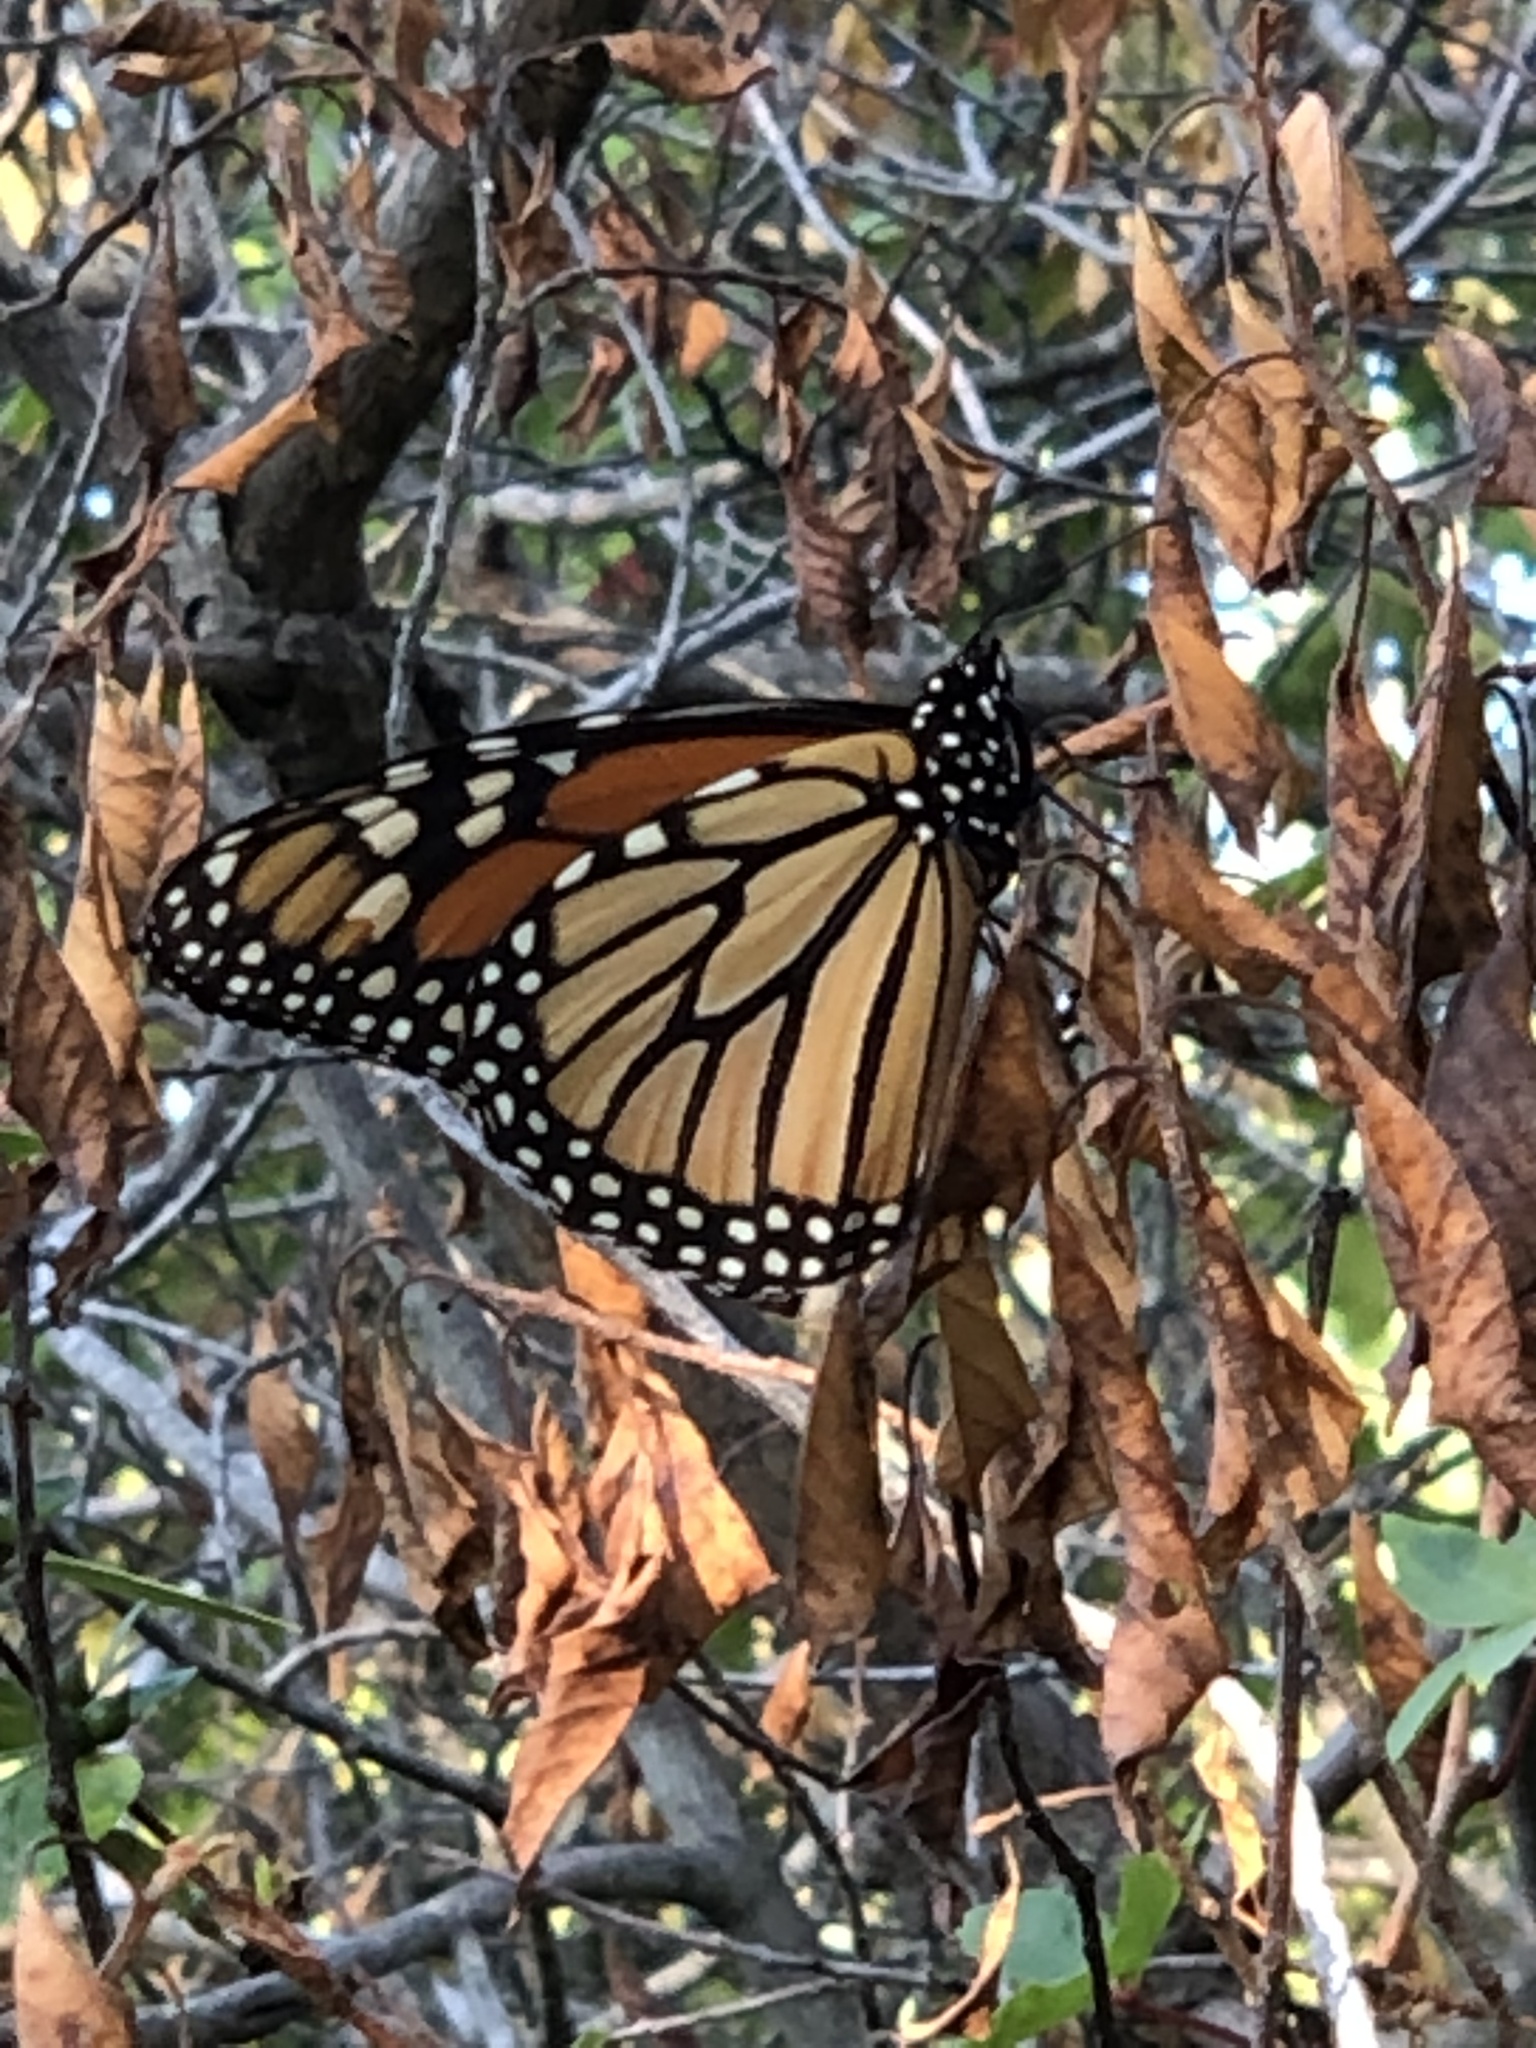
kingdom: Animalia
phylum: Arthropoda
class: Insecta
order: Lepidoptera
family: Nymphalidae
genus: Danaus
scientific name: Danaus plexippus
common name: Monarch
